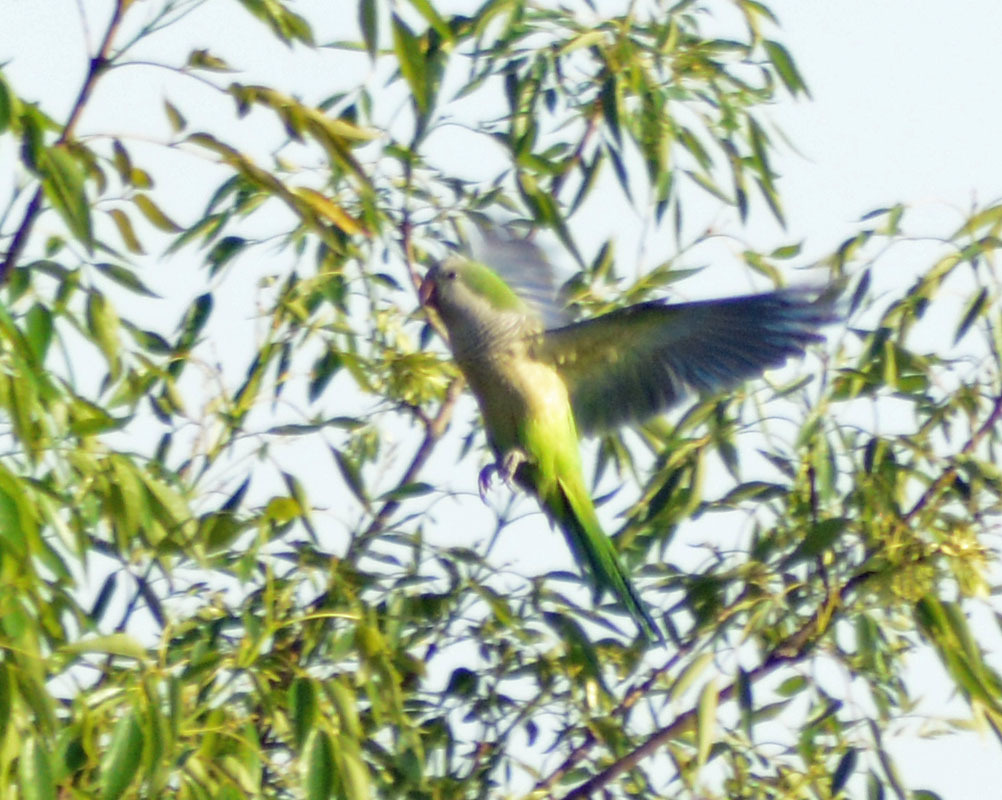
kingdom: Animalia
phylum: Chordata
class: Aves
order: Psittaciformes
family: Psittacidae
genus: Myiopsitta
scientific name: Myiopsitta monachus
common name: Monk parakeet
